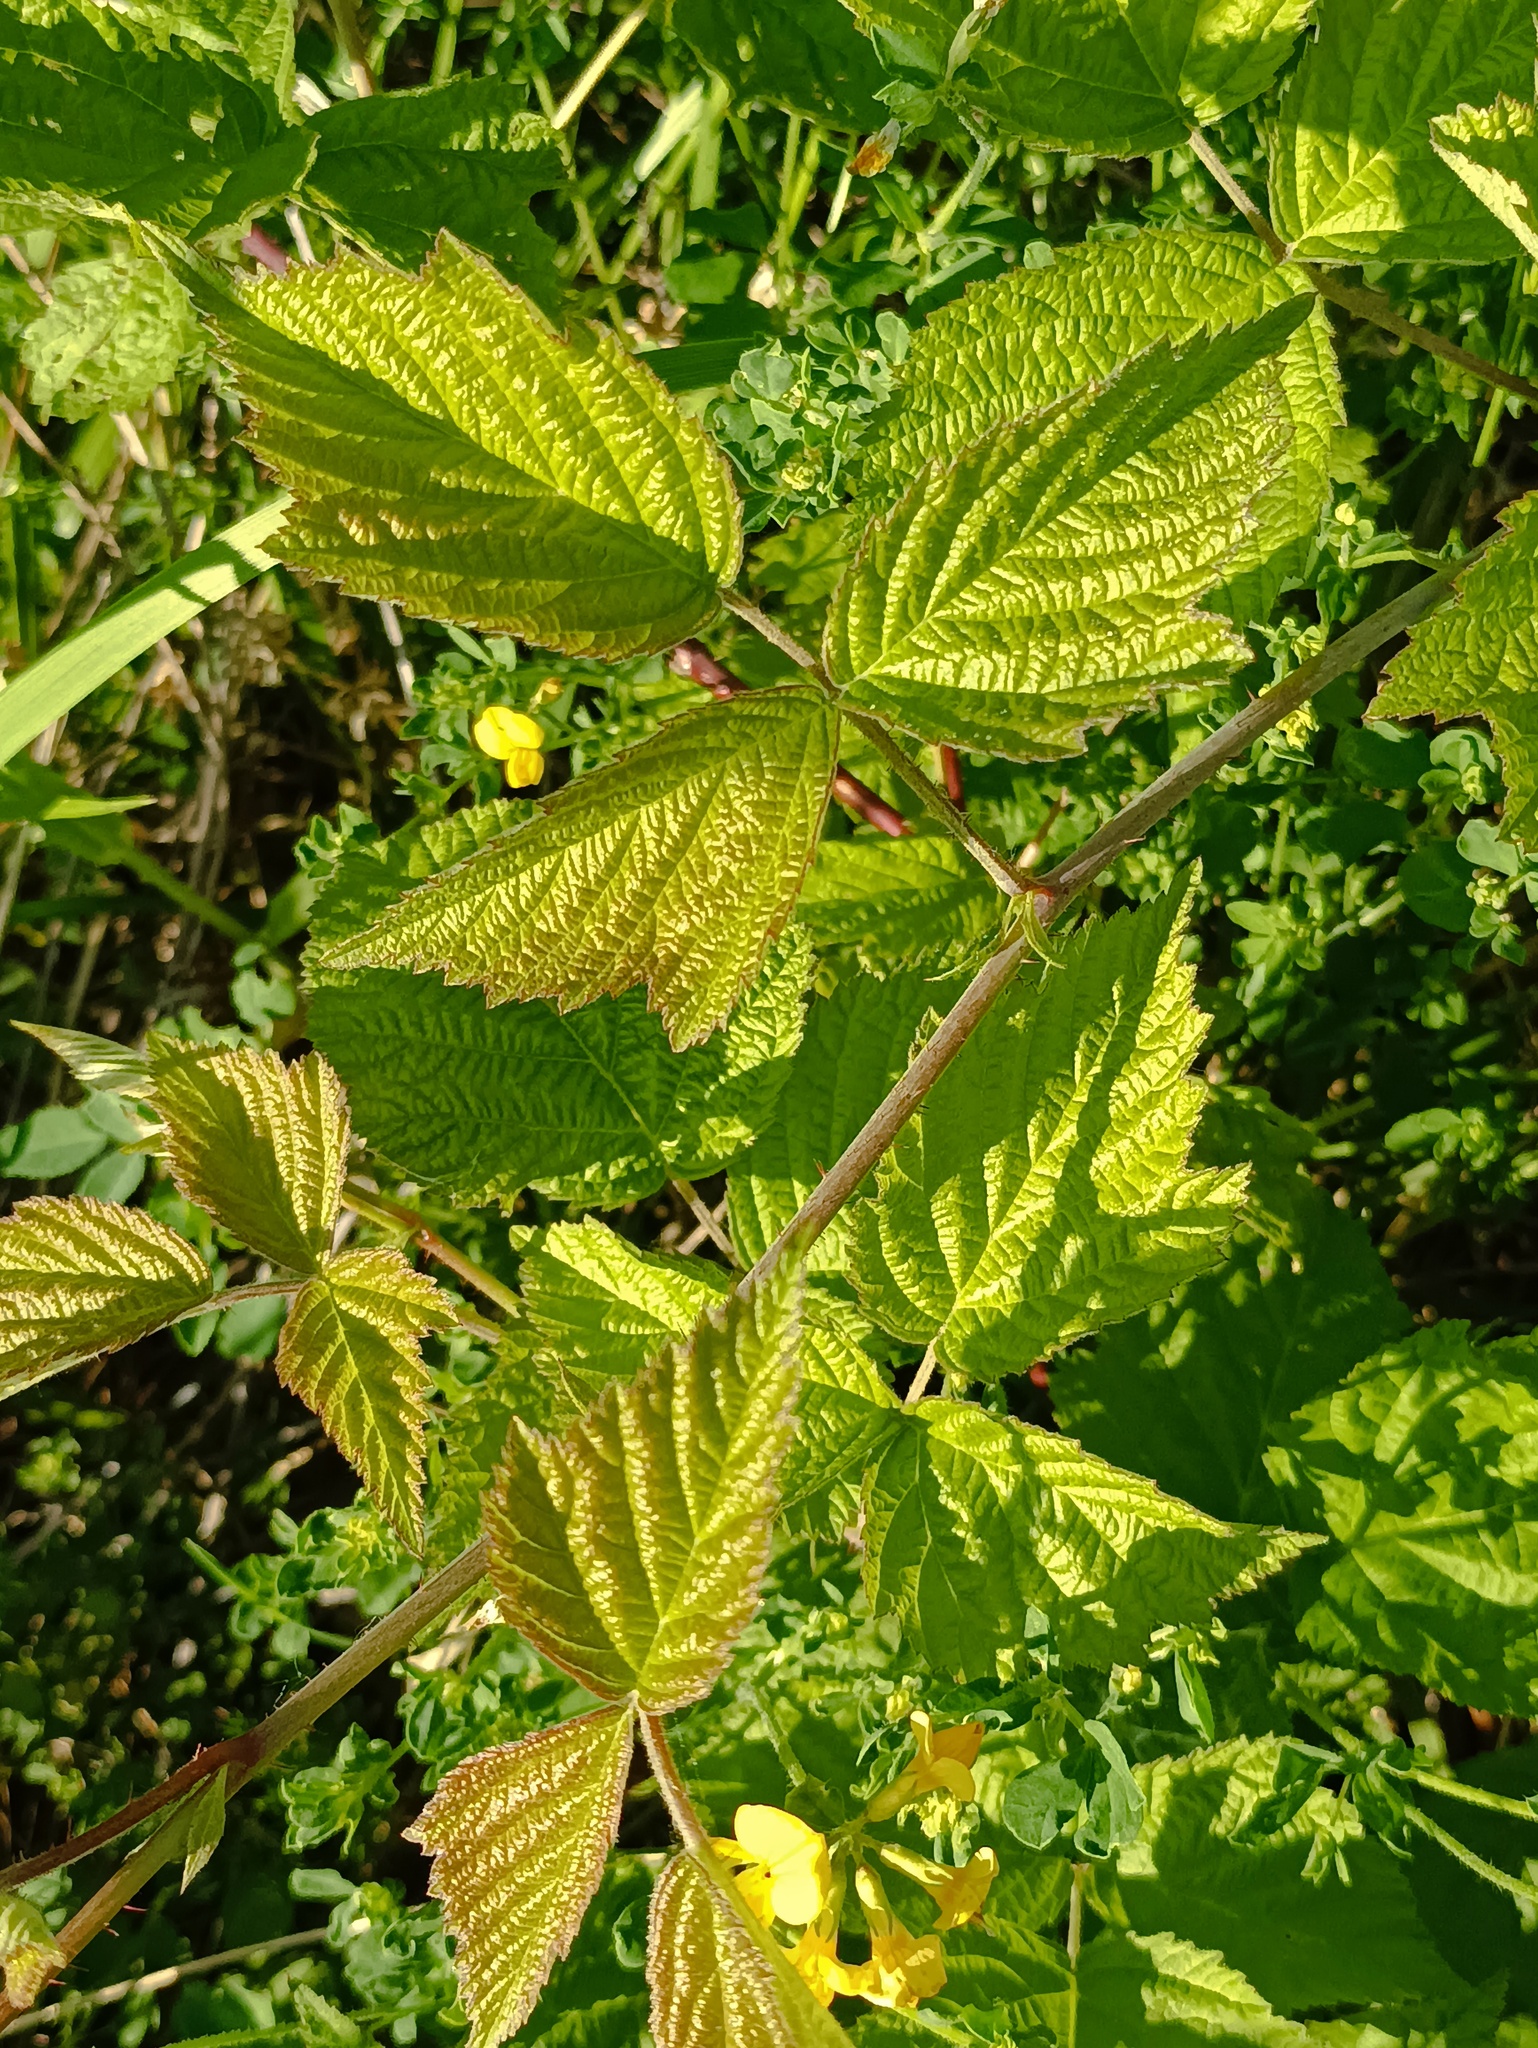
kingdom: Plantae
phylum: Tracheophyta
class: Magnoliopsida
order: Rosales
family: Rosaceae
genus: Rubus
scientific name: Rubus caesius
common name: Dewberry
